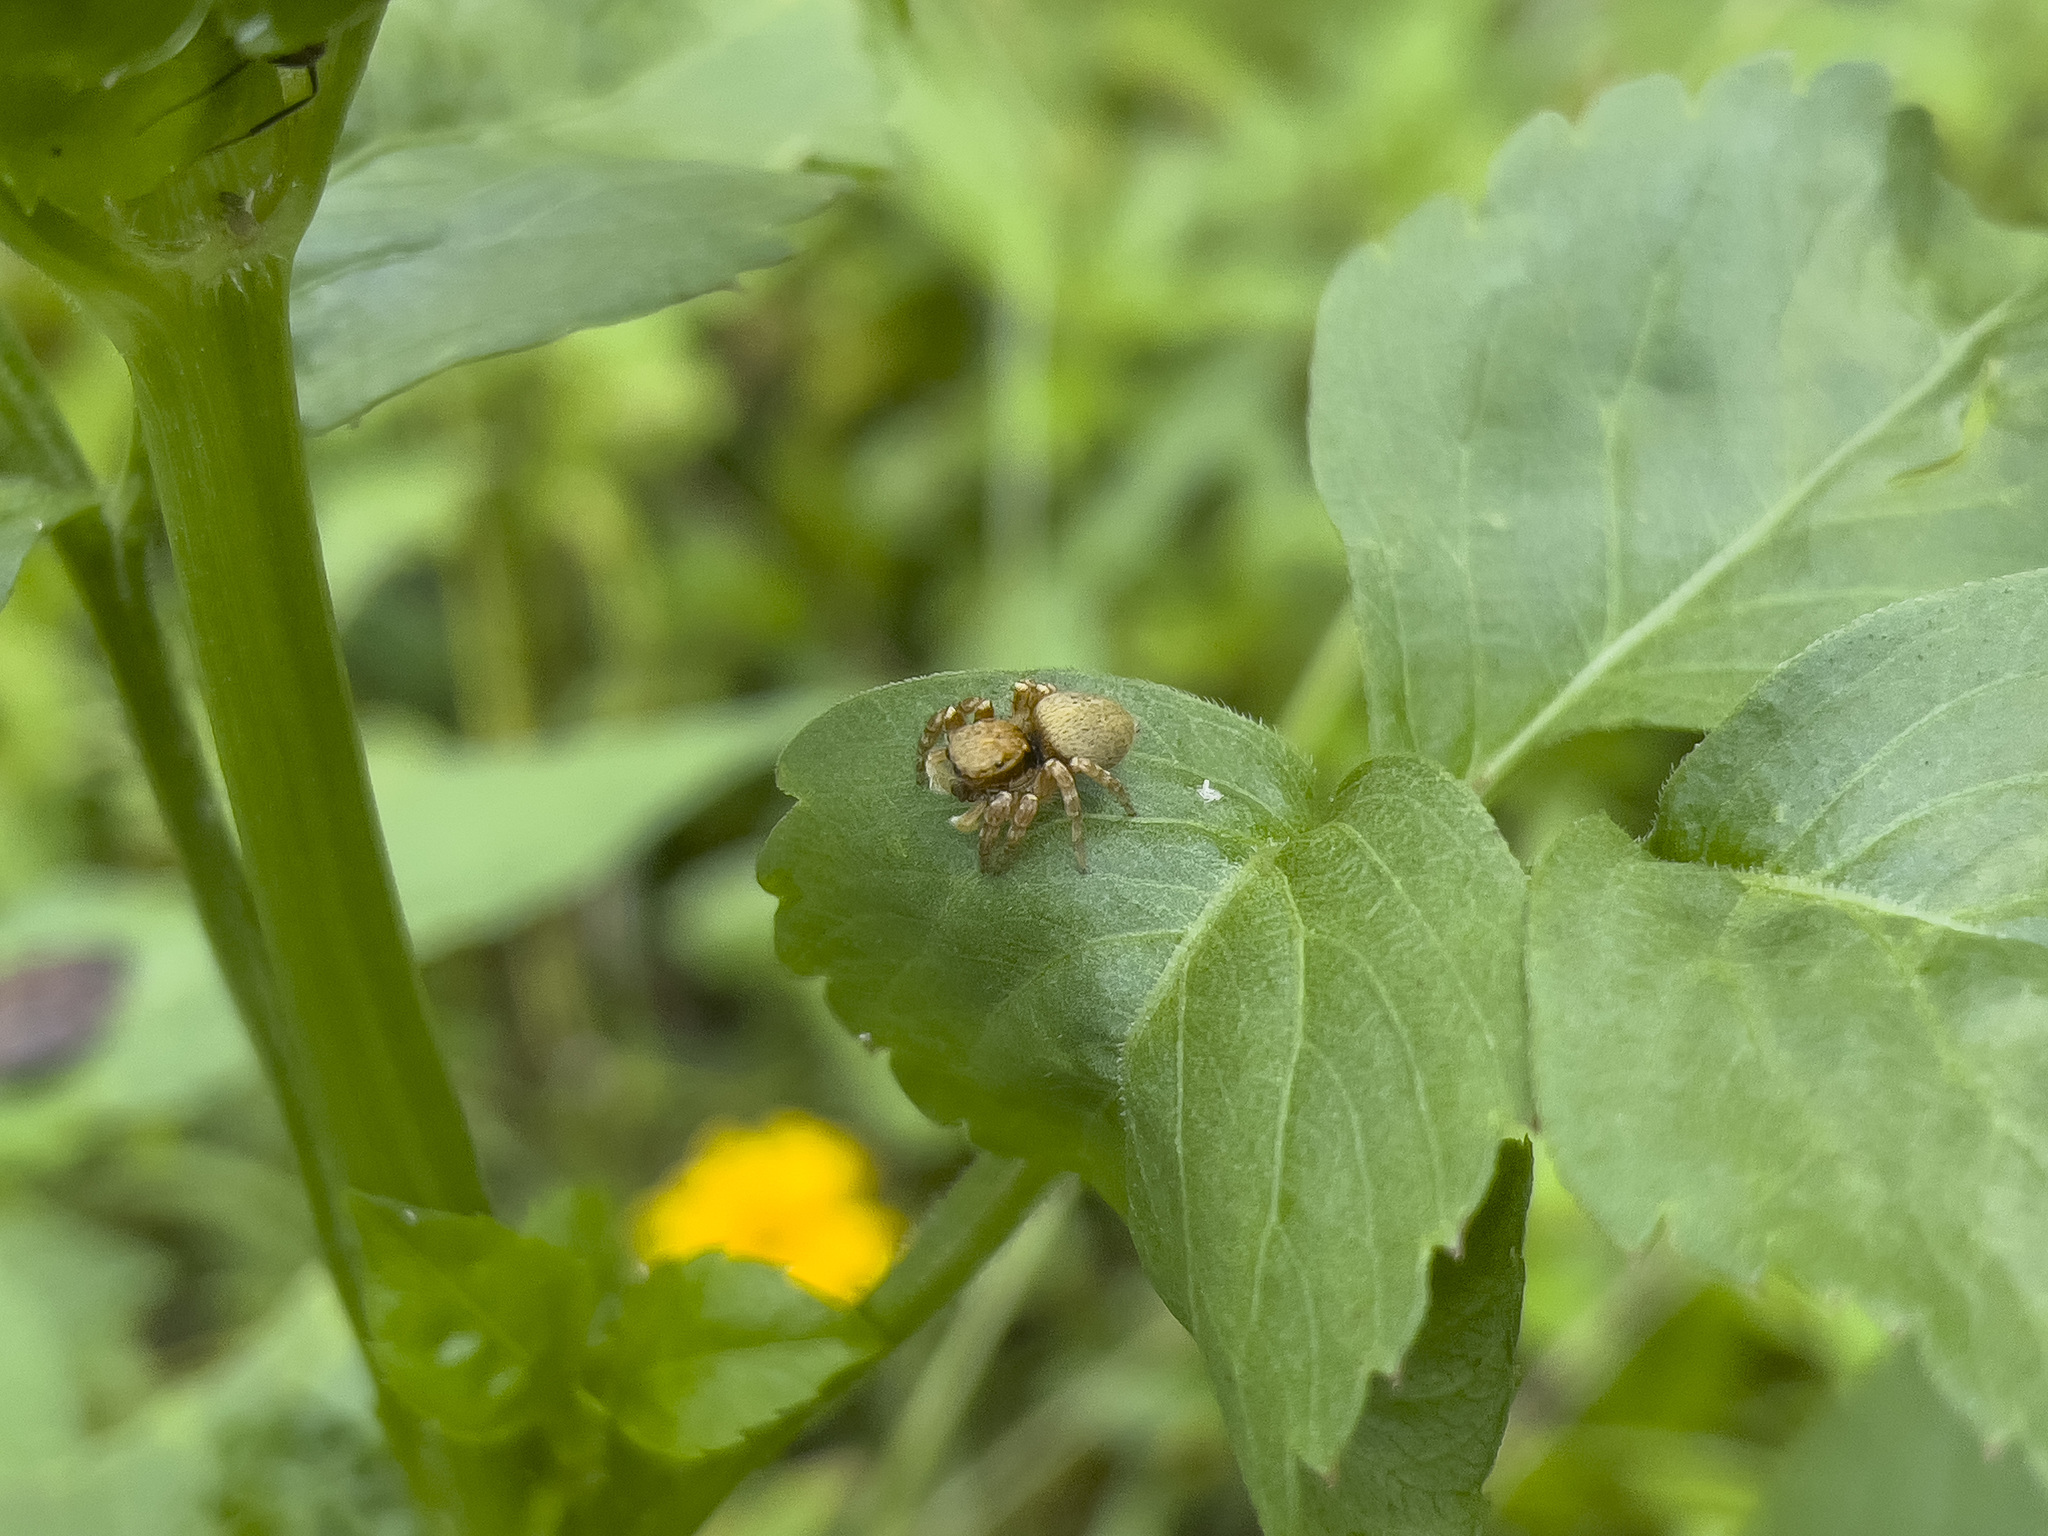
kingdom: Animalia
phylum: Arthropoda
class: Arachnida
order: Araneae
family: Salticidae
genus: Carrhotus
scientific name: Carrhotus sannio
